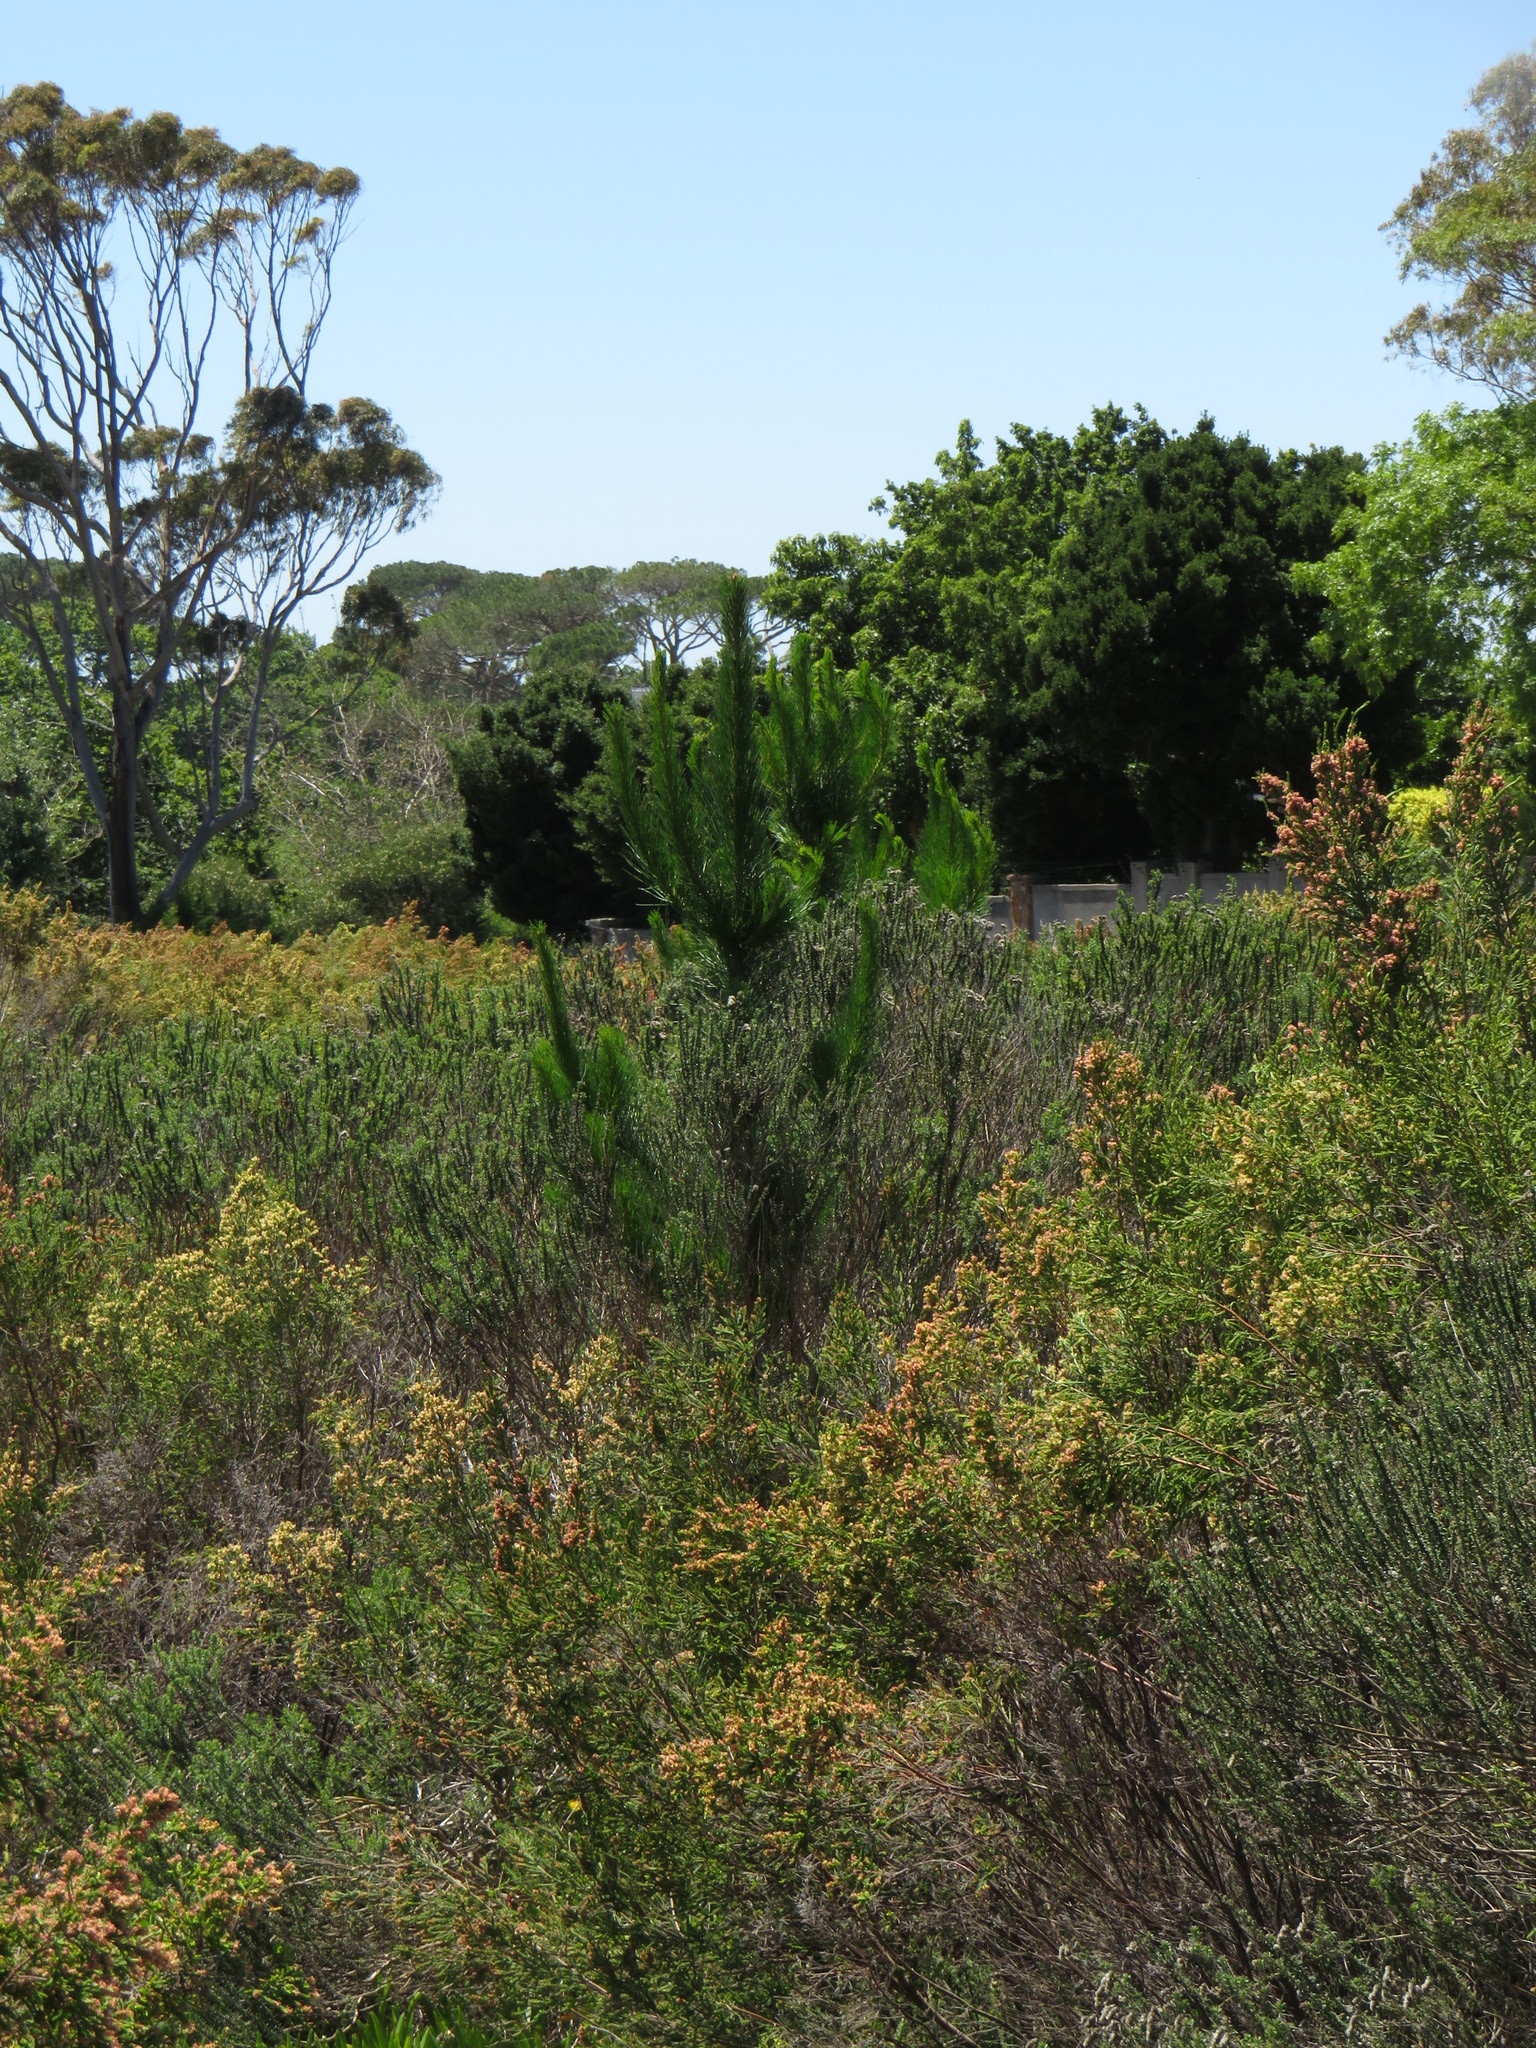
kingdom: Plantae
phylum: Tracheophyta
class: Pinopsida
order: Pinales
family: Pinaceae
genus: Pinus
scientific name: Pinus radiata
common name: Monterey pine
